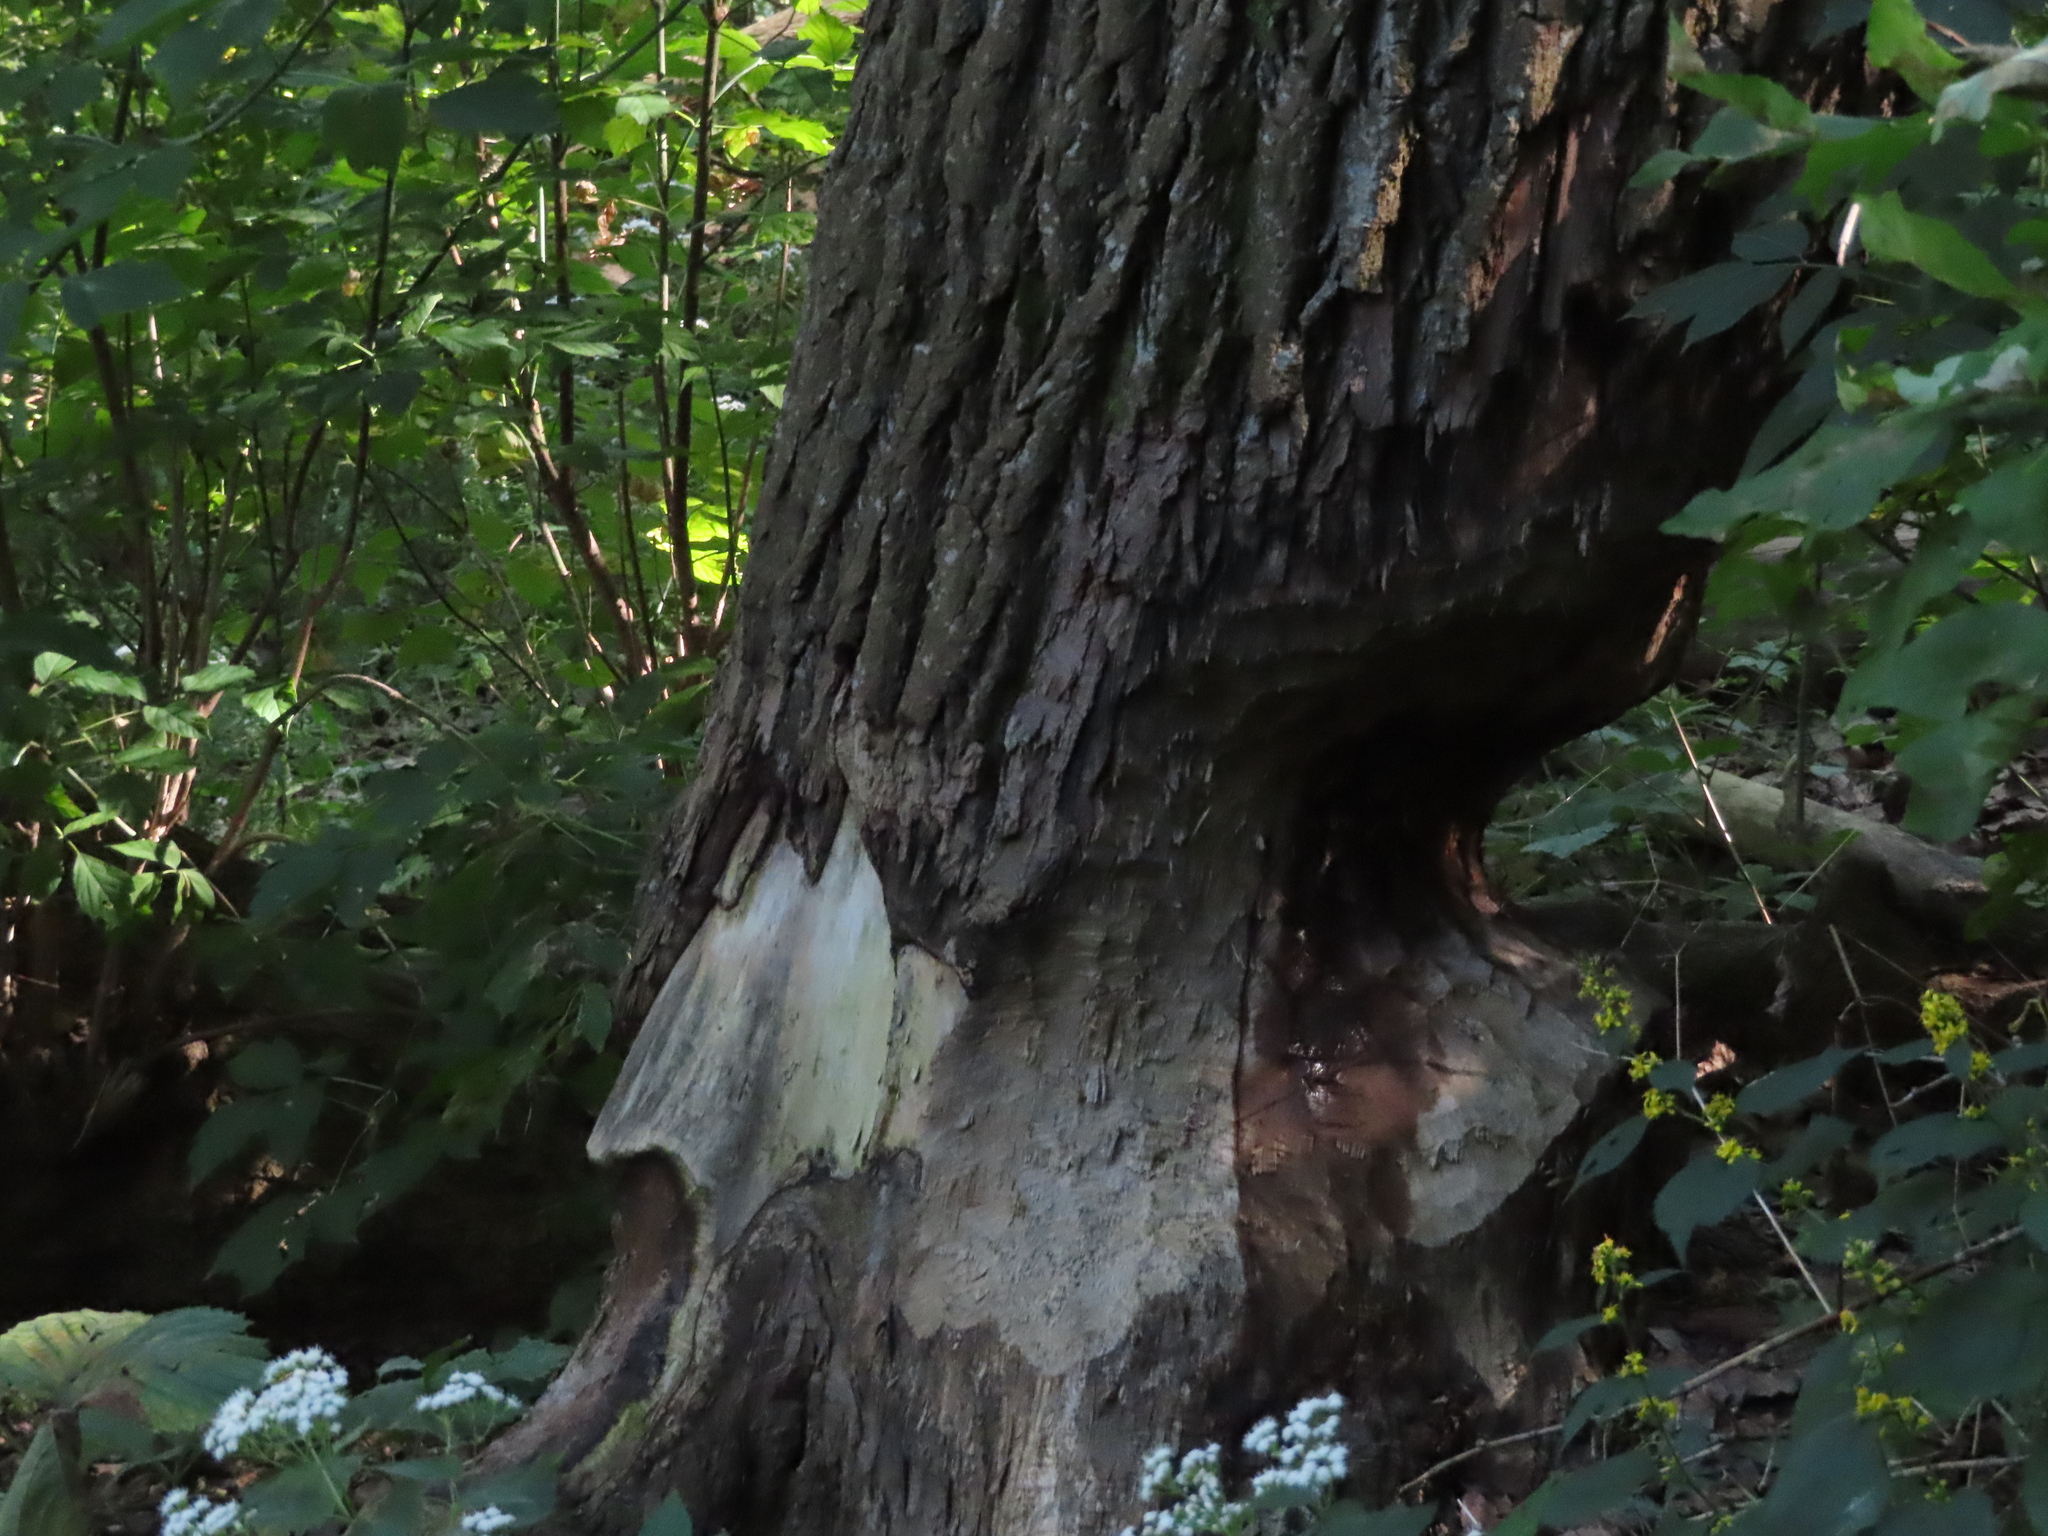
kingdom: Animalia
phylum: Chordata
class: Mammalia
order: Rodentia
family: Castoridae
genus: Castor
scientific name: Castor canadensis
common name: American beaver
